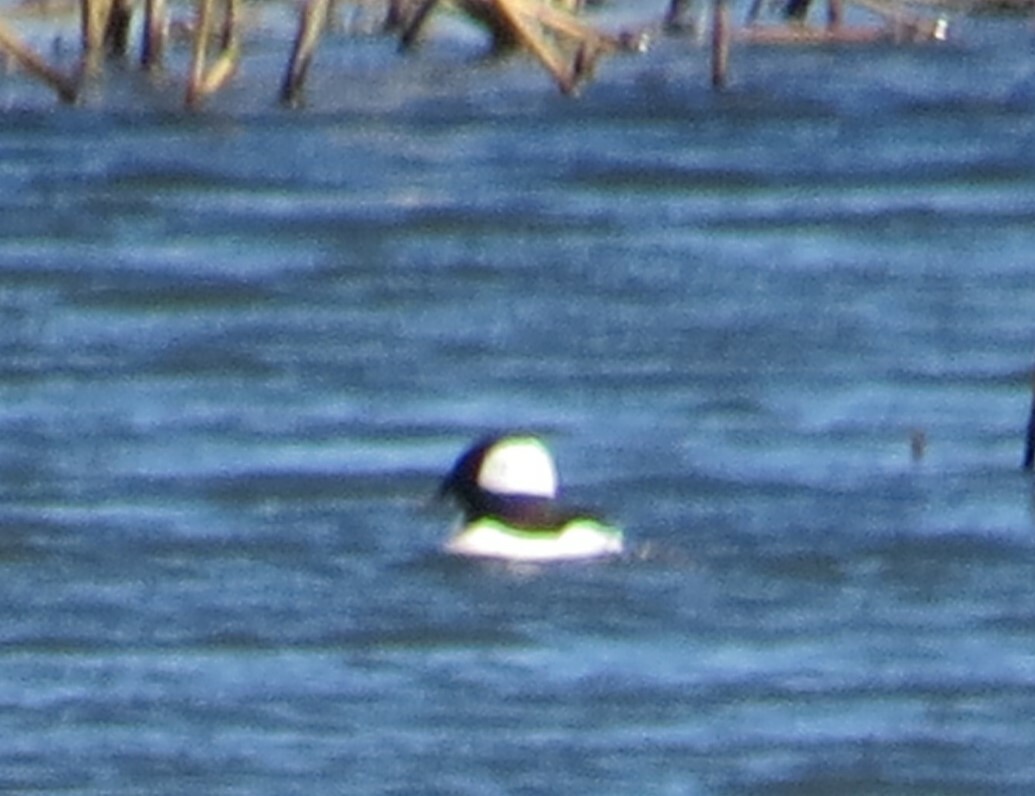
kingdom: Animalia
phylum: Chordata
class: Aves
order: Anseriformes
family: Anatidae
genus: Bucephala
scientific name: Bucephala albeola
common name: Bufflehead
